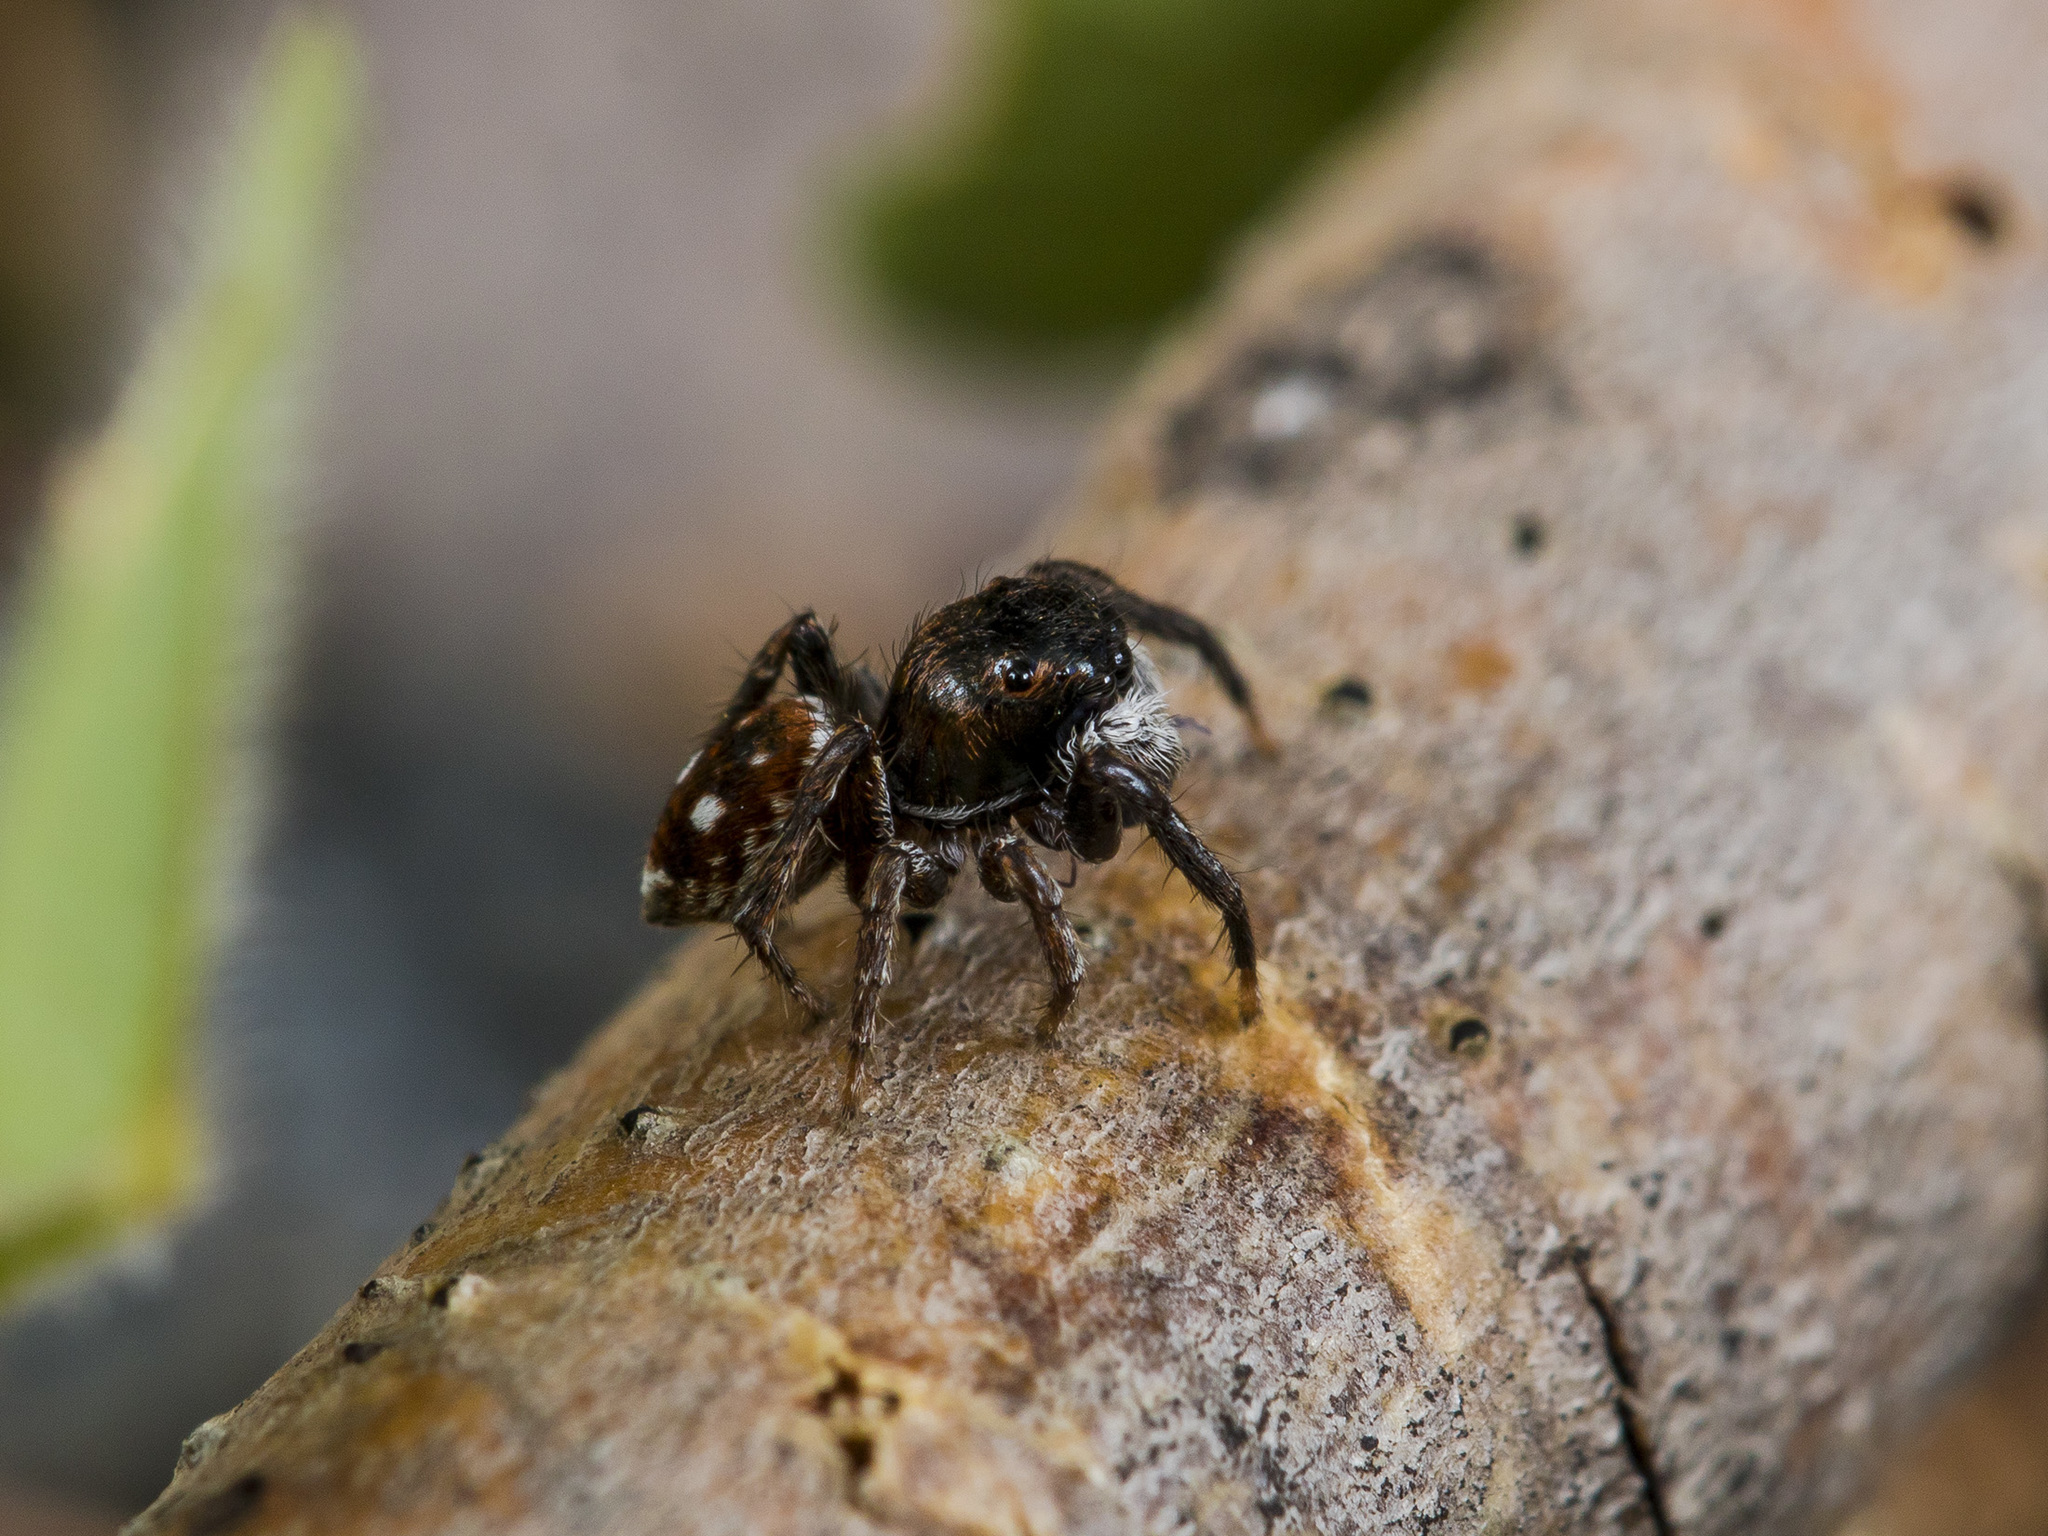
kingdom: Animalia
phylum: Arthropoda
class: Arachnida
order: Araneae
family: Salticidae
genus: Attulus
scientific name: Attulus mirandus
